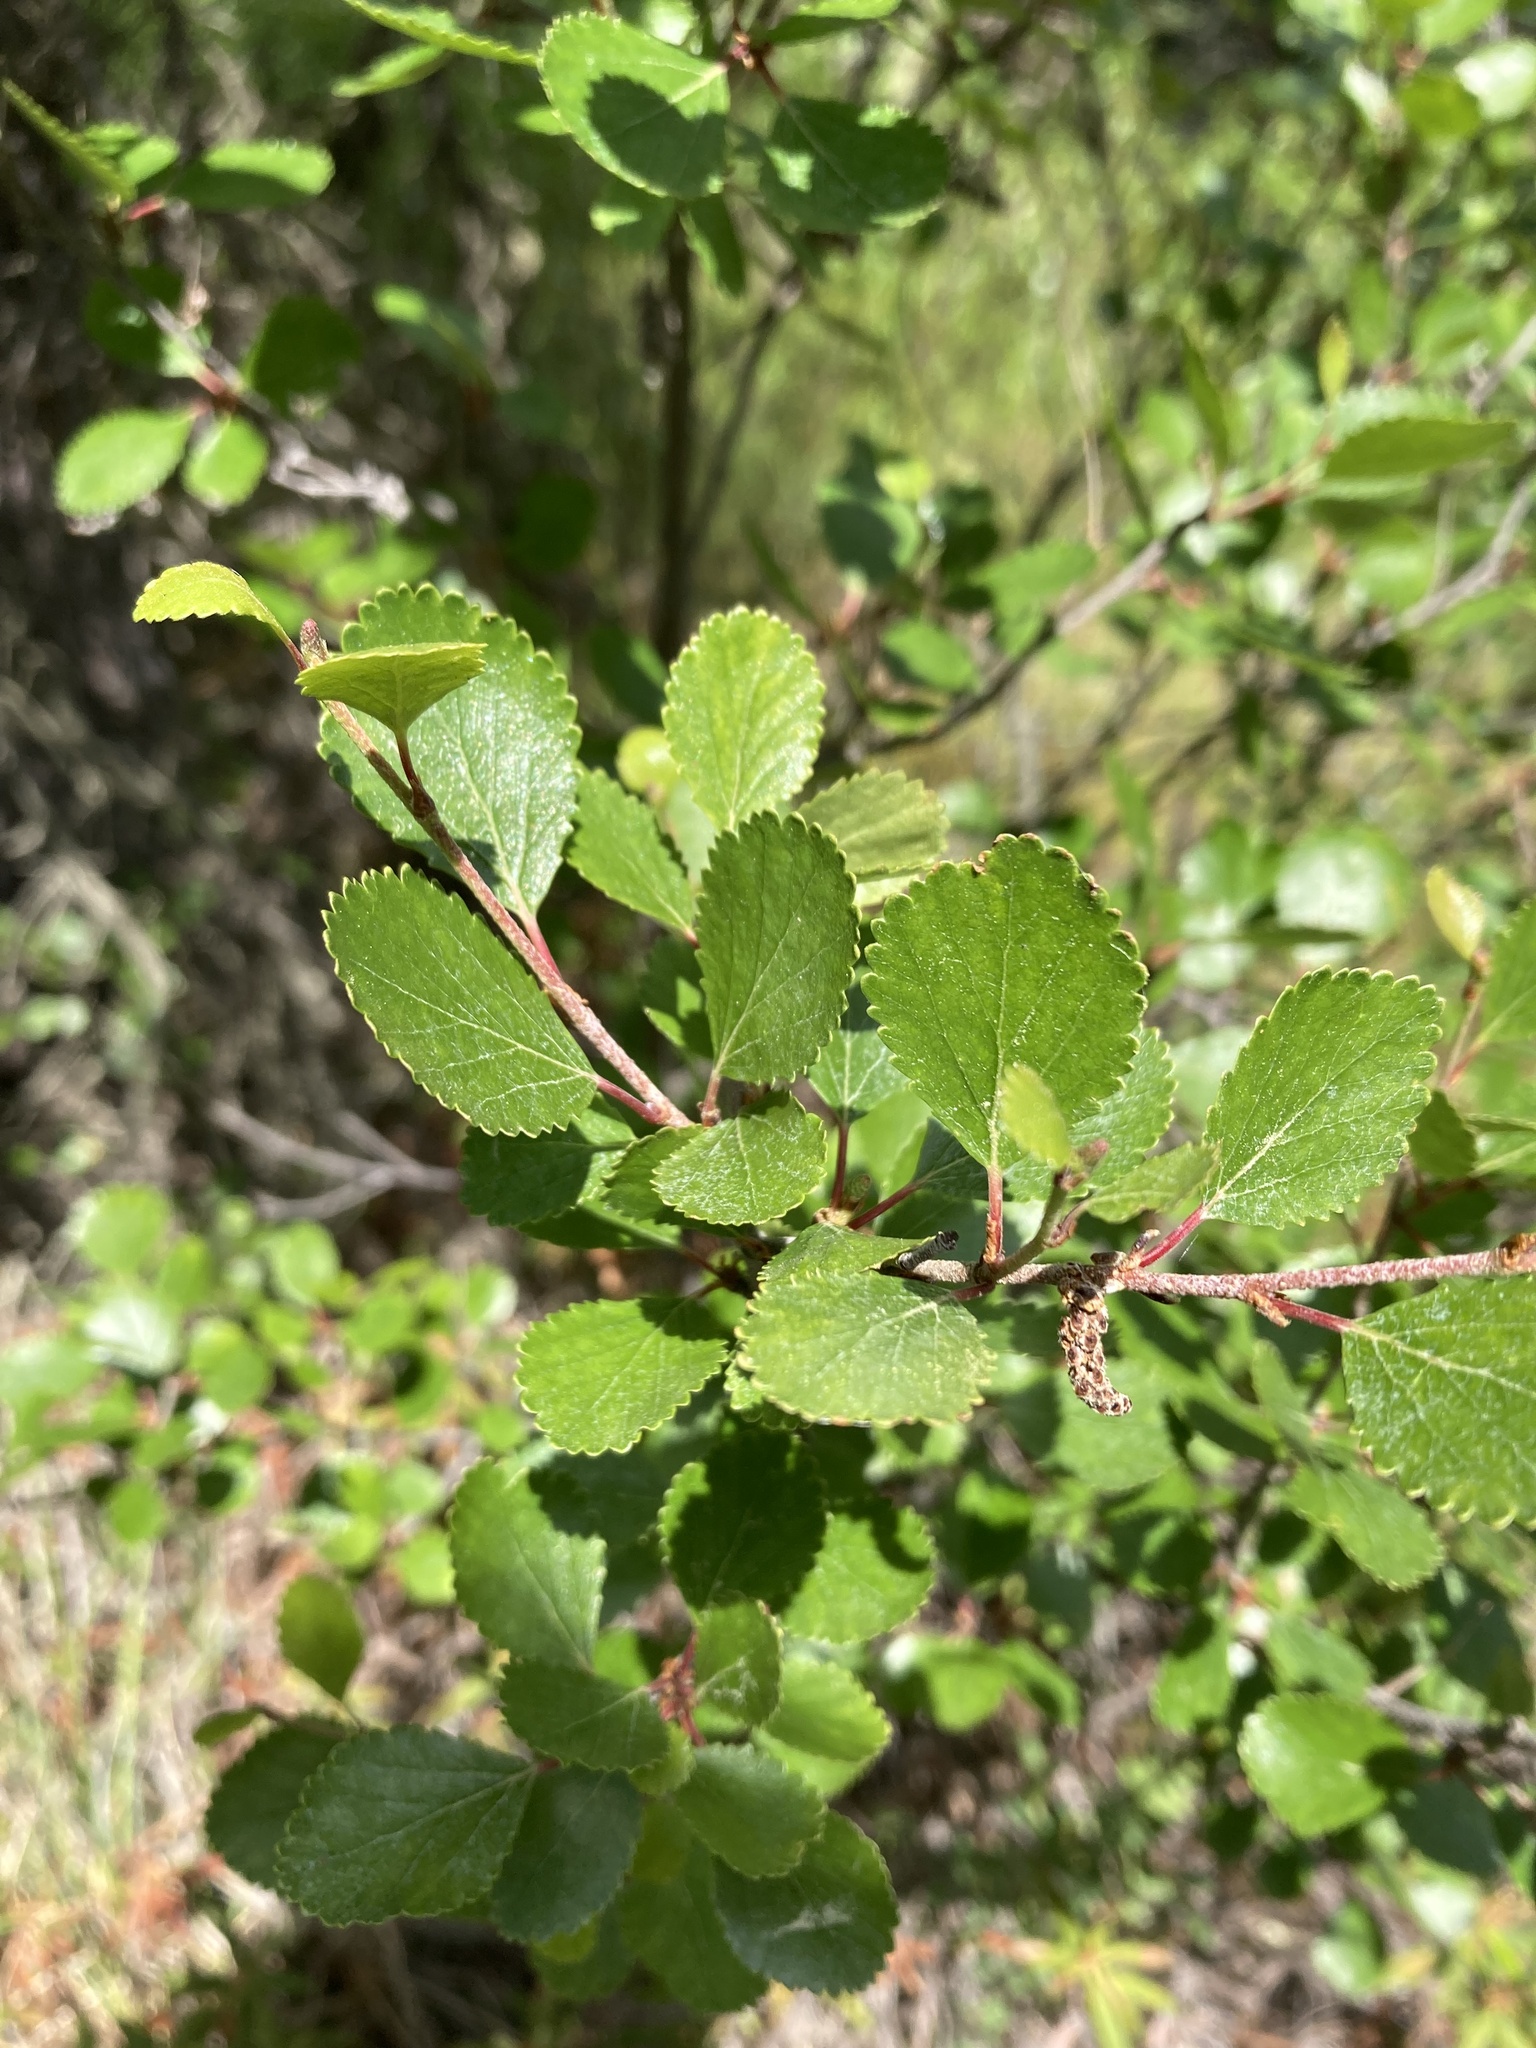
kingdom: Plantae
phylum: Tracheophyta
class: Magnoliopsida
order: Fagales
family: Betulaceae
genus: Betula
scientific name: Betula glandulosa
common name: Dwarf birch
